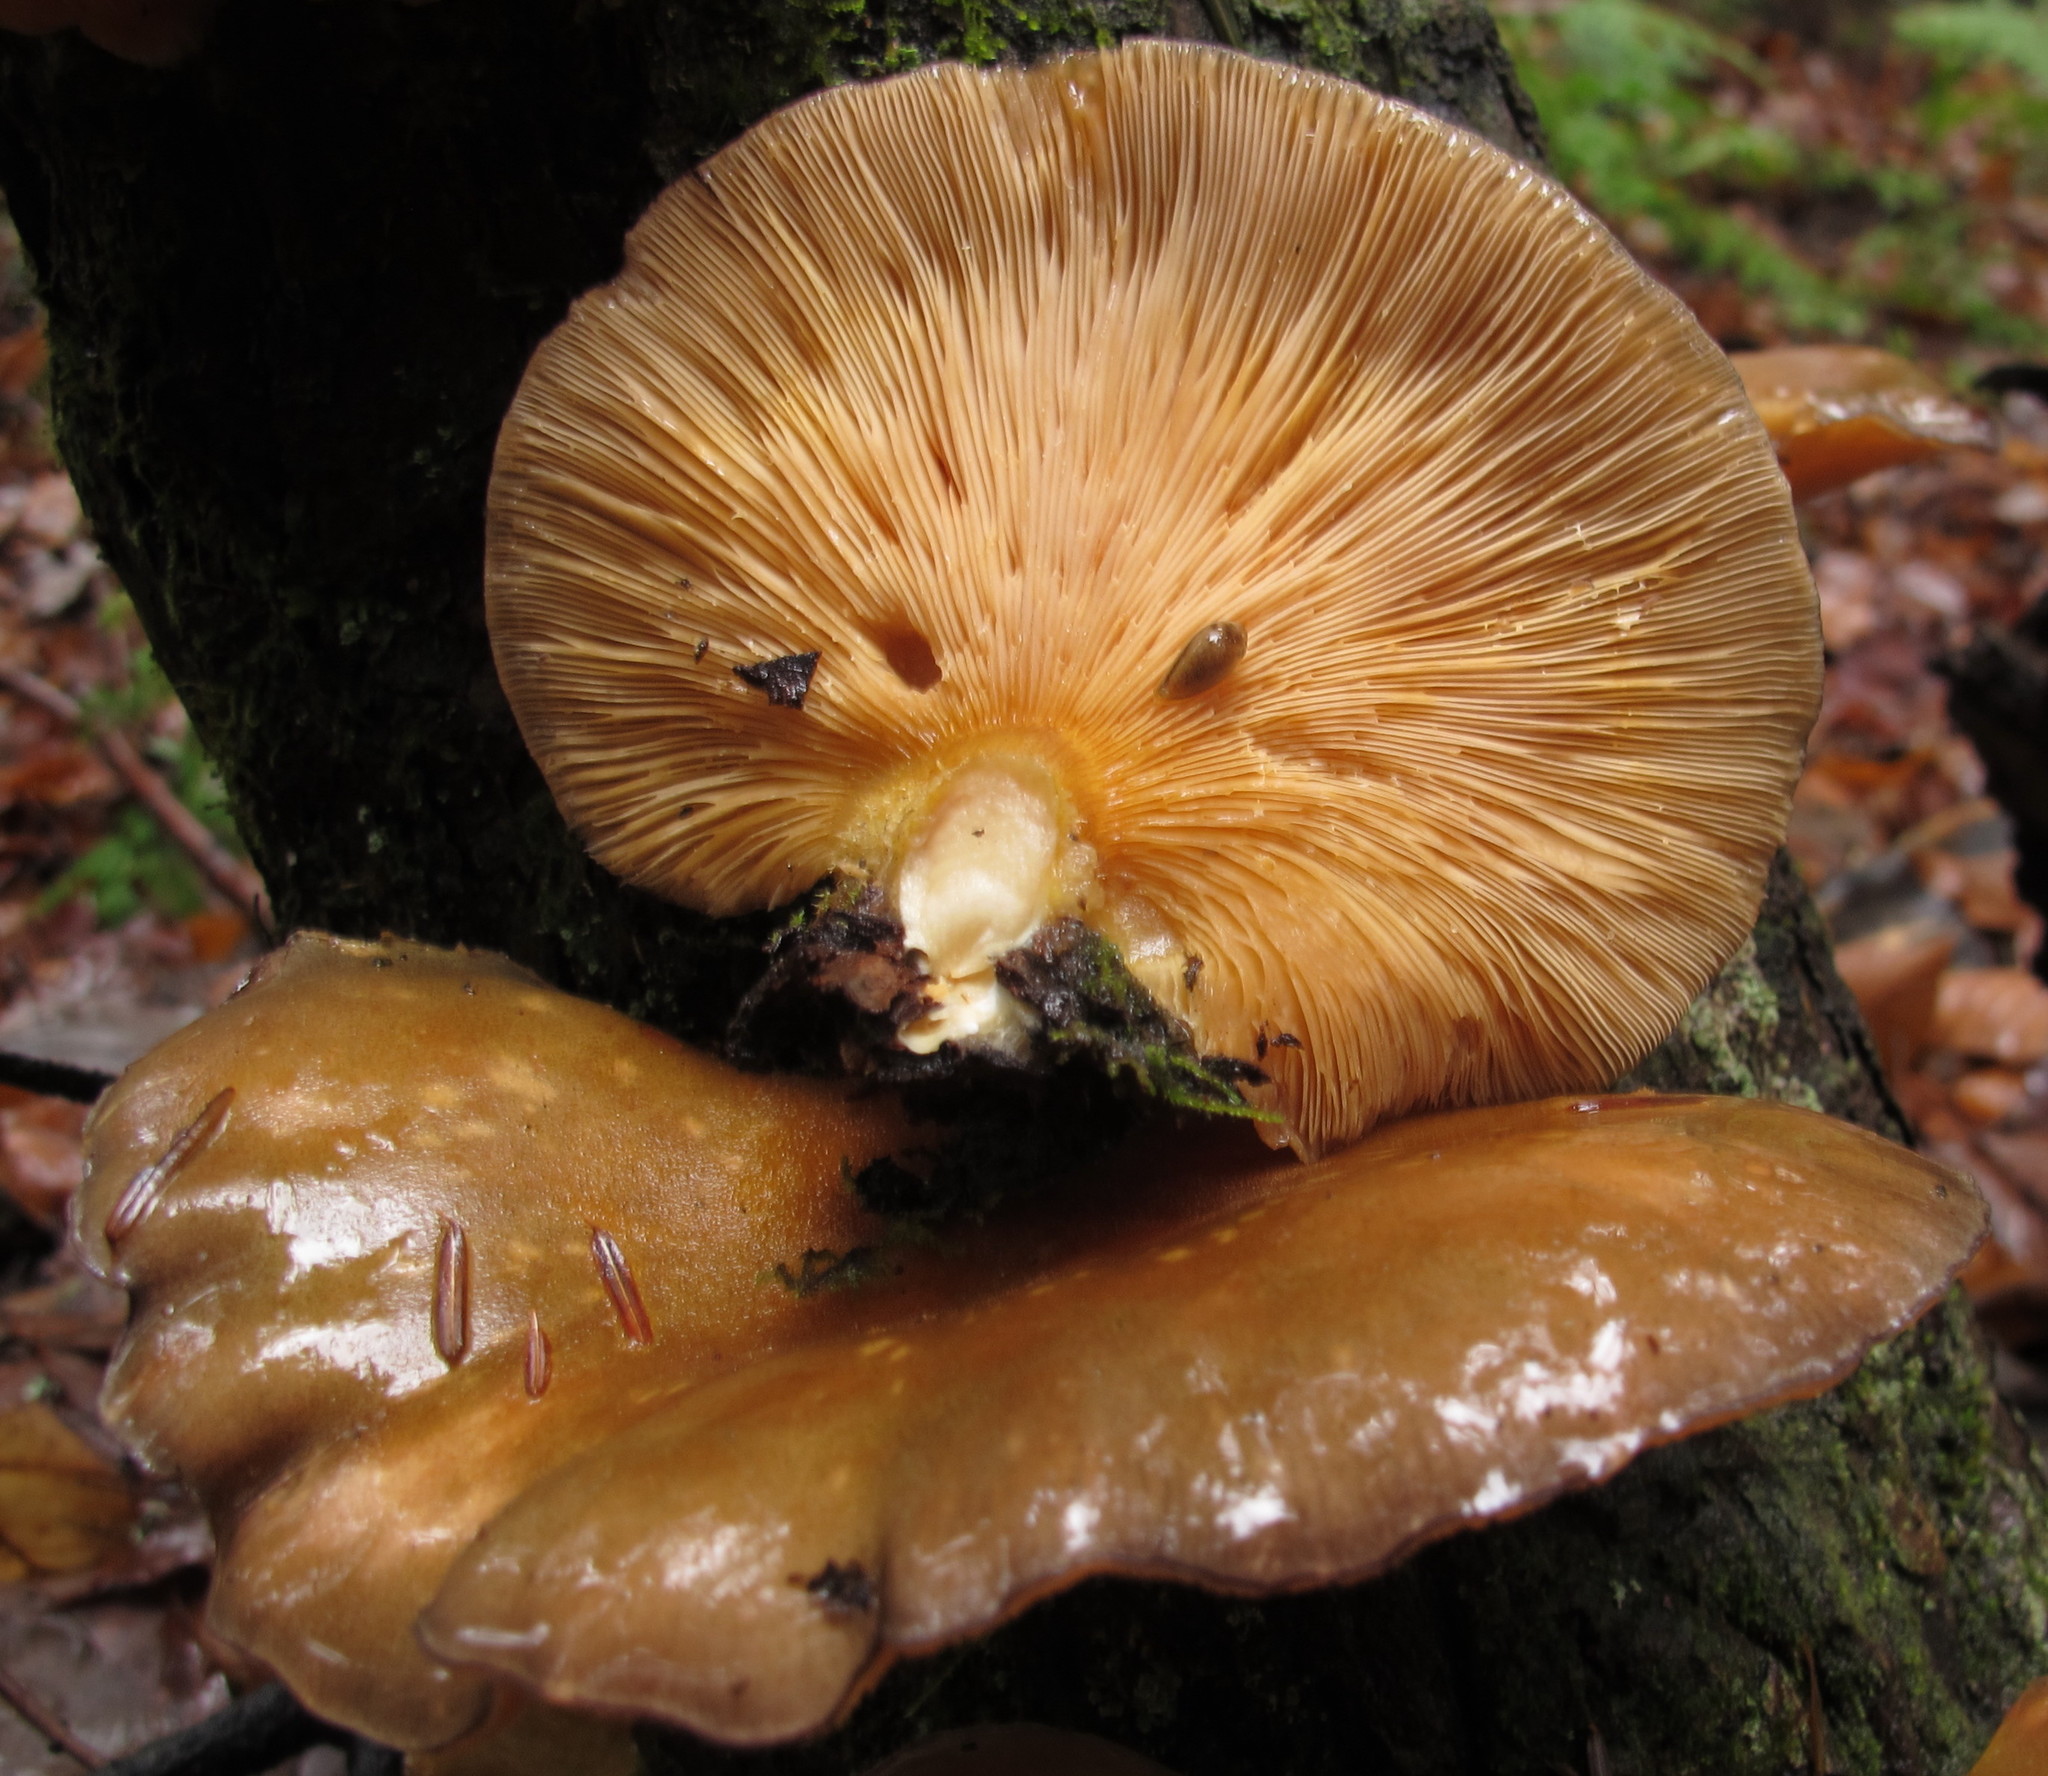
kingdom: Fungi
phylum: Basidiomycota
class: Agaricomycetes
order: Agaricales
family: Sarcomyxaceae
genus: Sarcomyxa
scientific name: Sarcomyxa serotina
